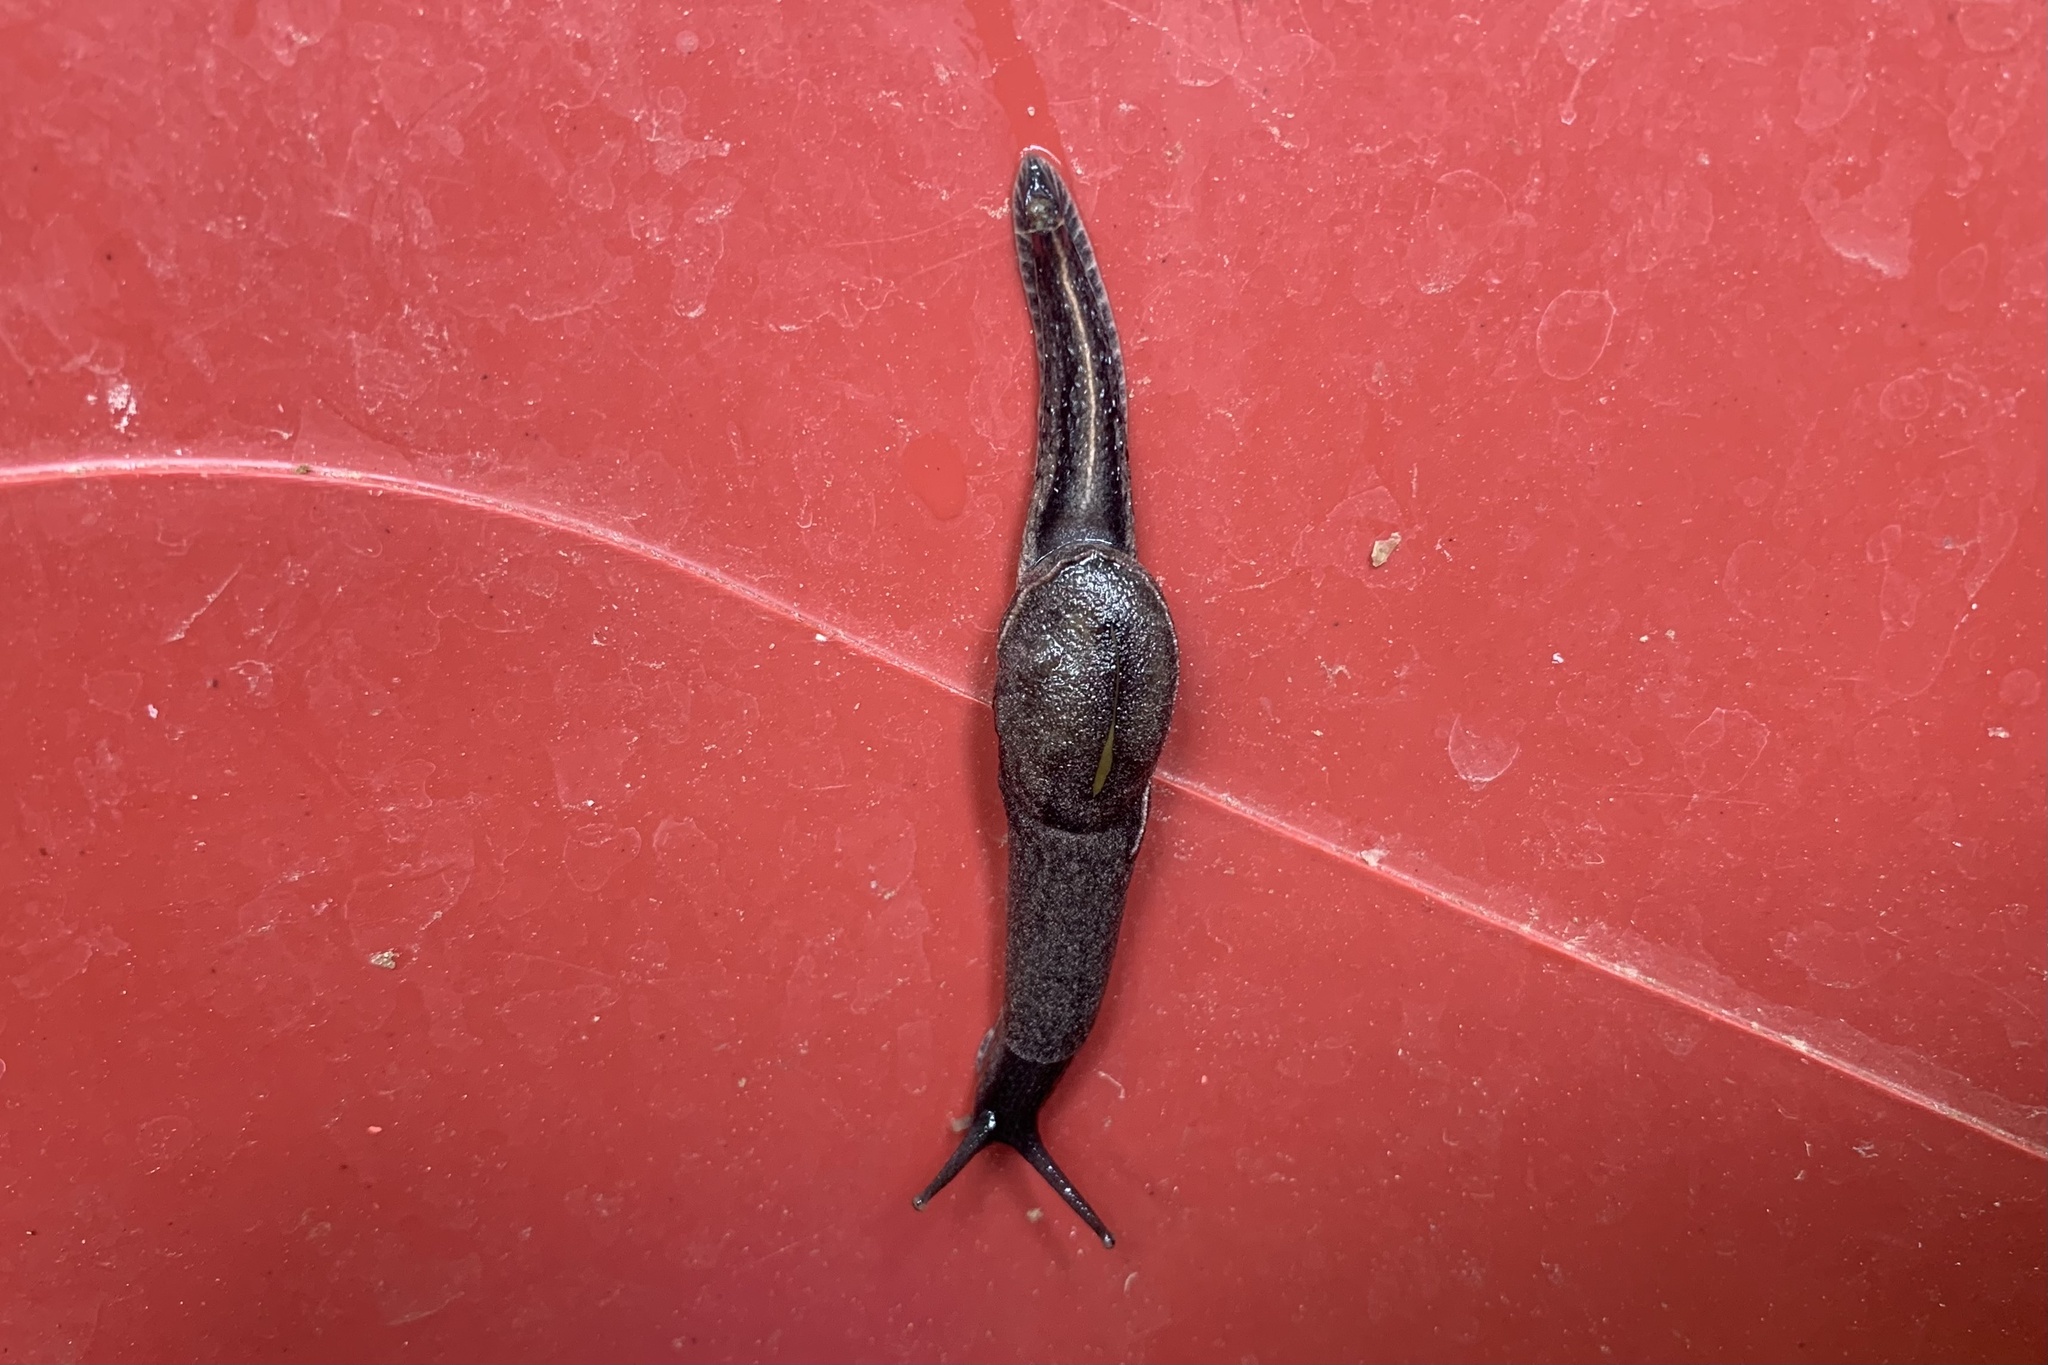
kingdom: Animalia
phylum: Mollusca
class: Gastropoda
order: Stylommatophora
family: Ariophantidae
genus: Parmarion
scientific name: Parmarion martensi
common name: Semi-slug
